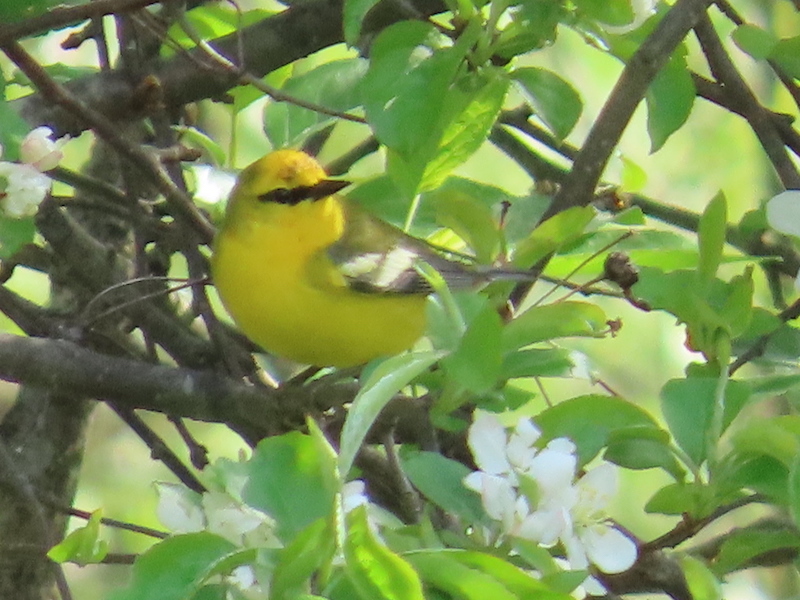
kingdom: Animalia
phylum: Chordata
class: Aves
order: Passeriformes
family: Parulidae
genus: Vermivora
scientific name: Vermivora cyanoptera
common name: Blue-winged warbler
